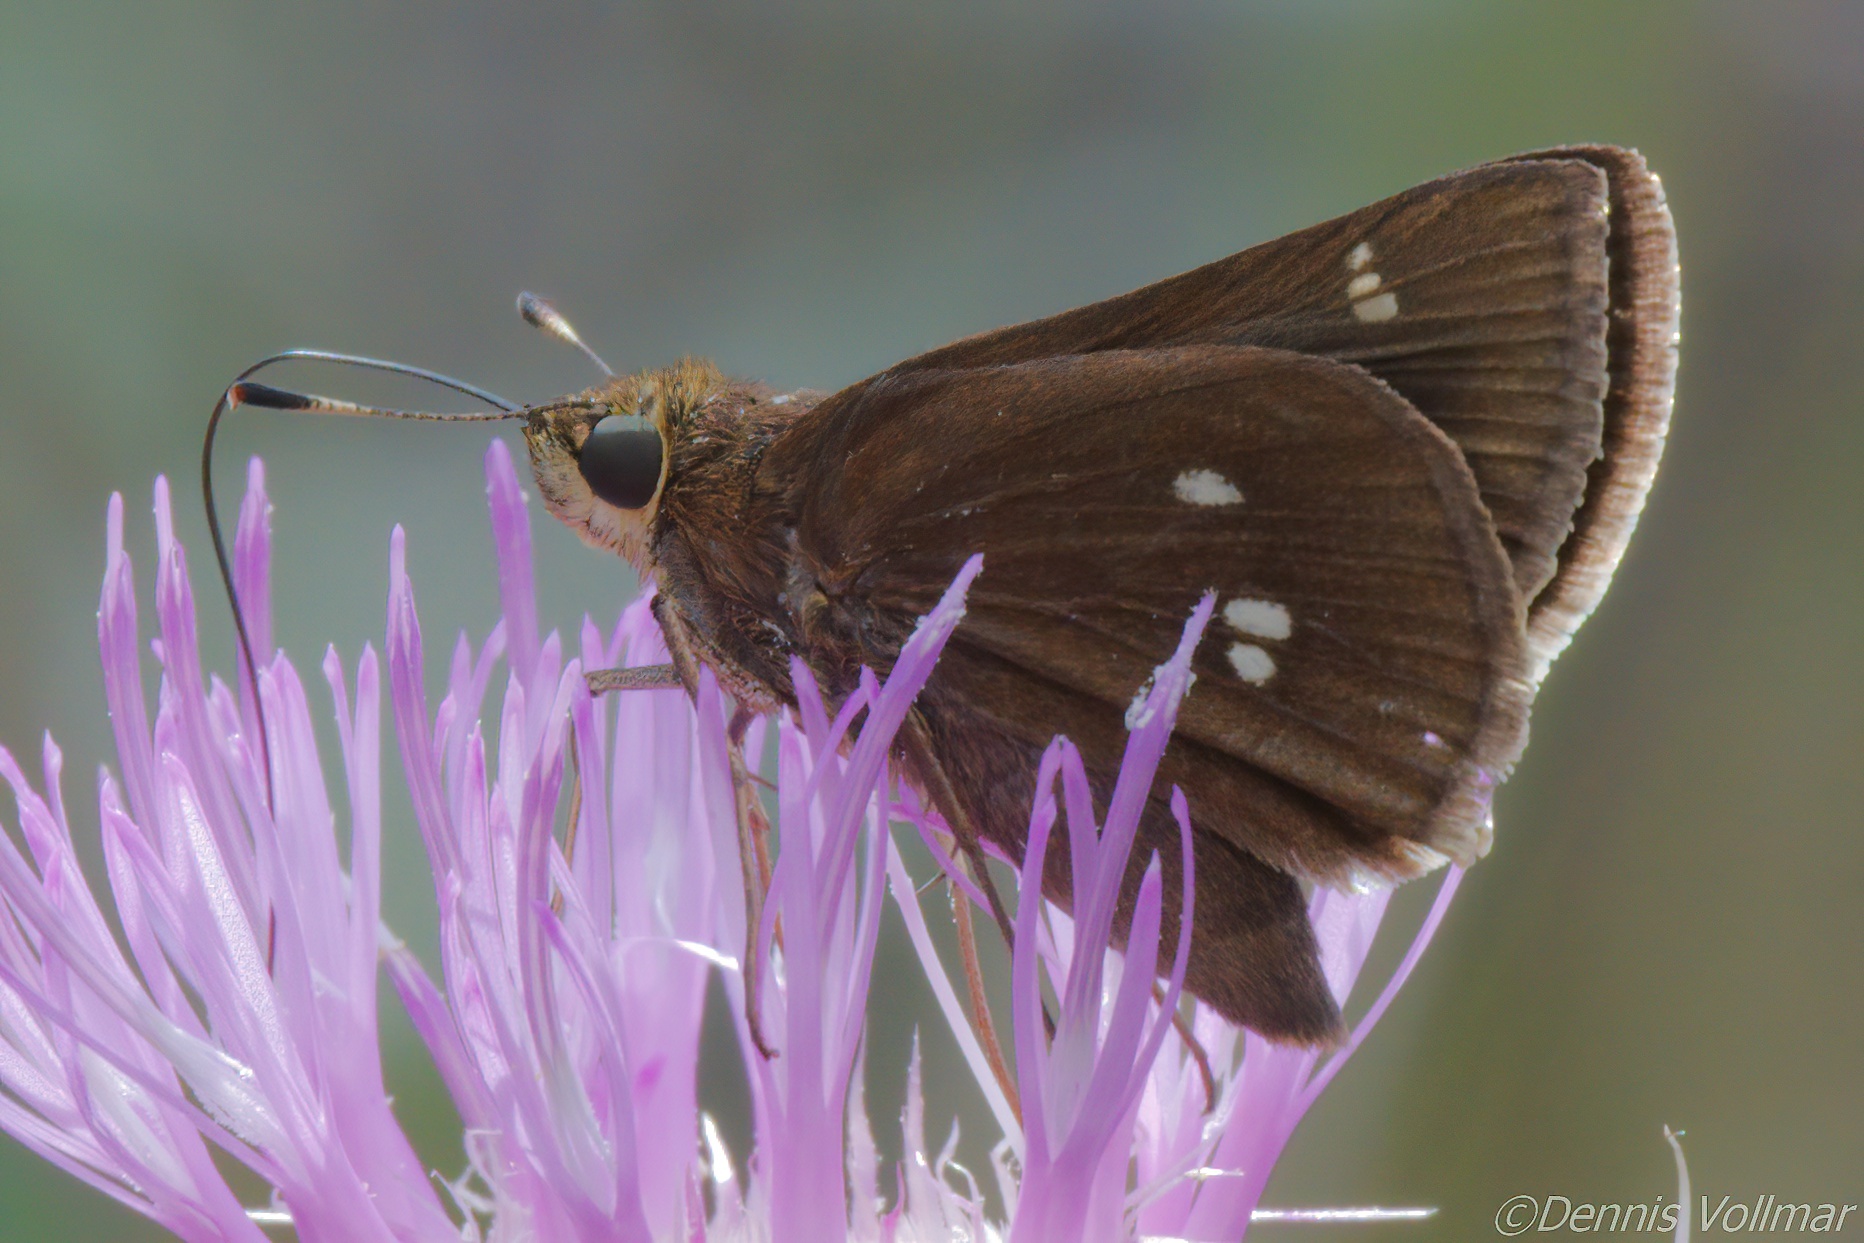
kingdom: Animalia
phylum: Arthropoda
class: Insecta
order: Lepidoptera
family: Hesperiidae
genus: Oligoria
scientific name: Oligoria maculata
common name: Twin-spot skipper
